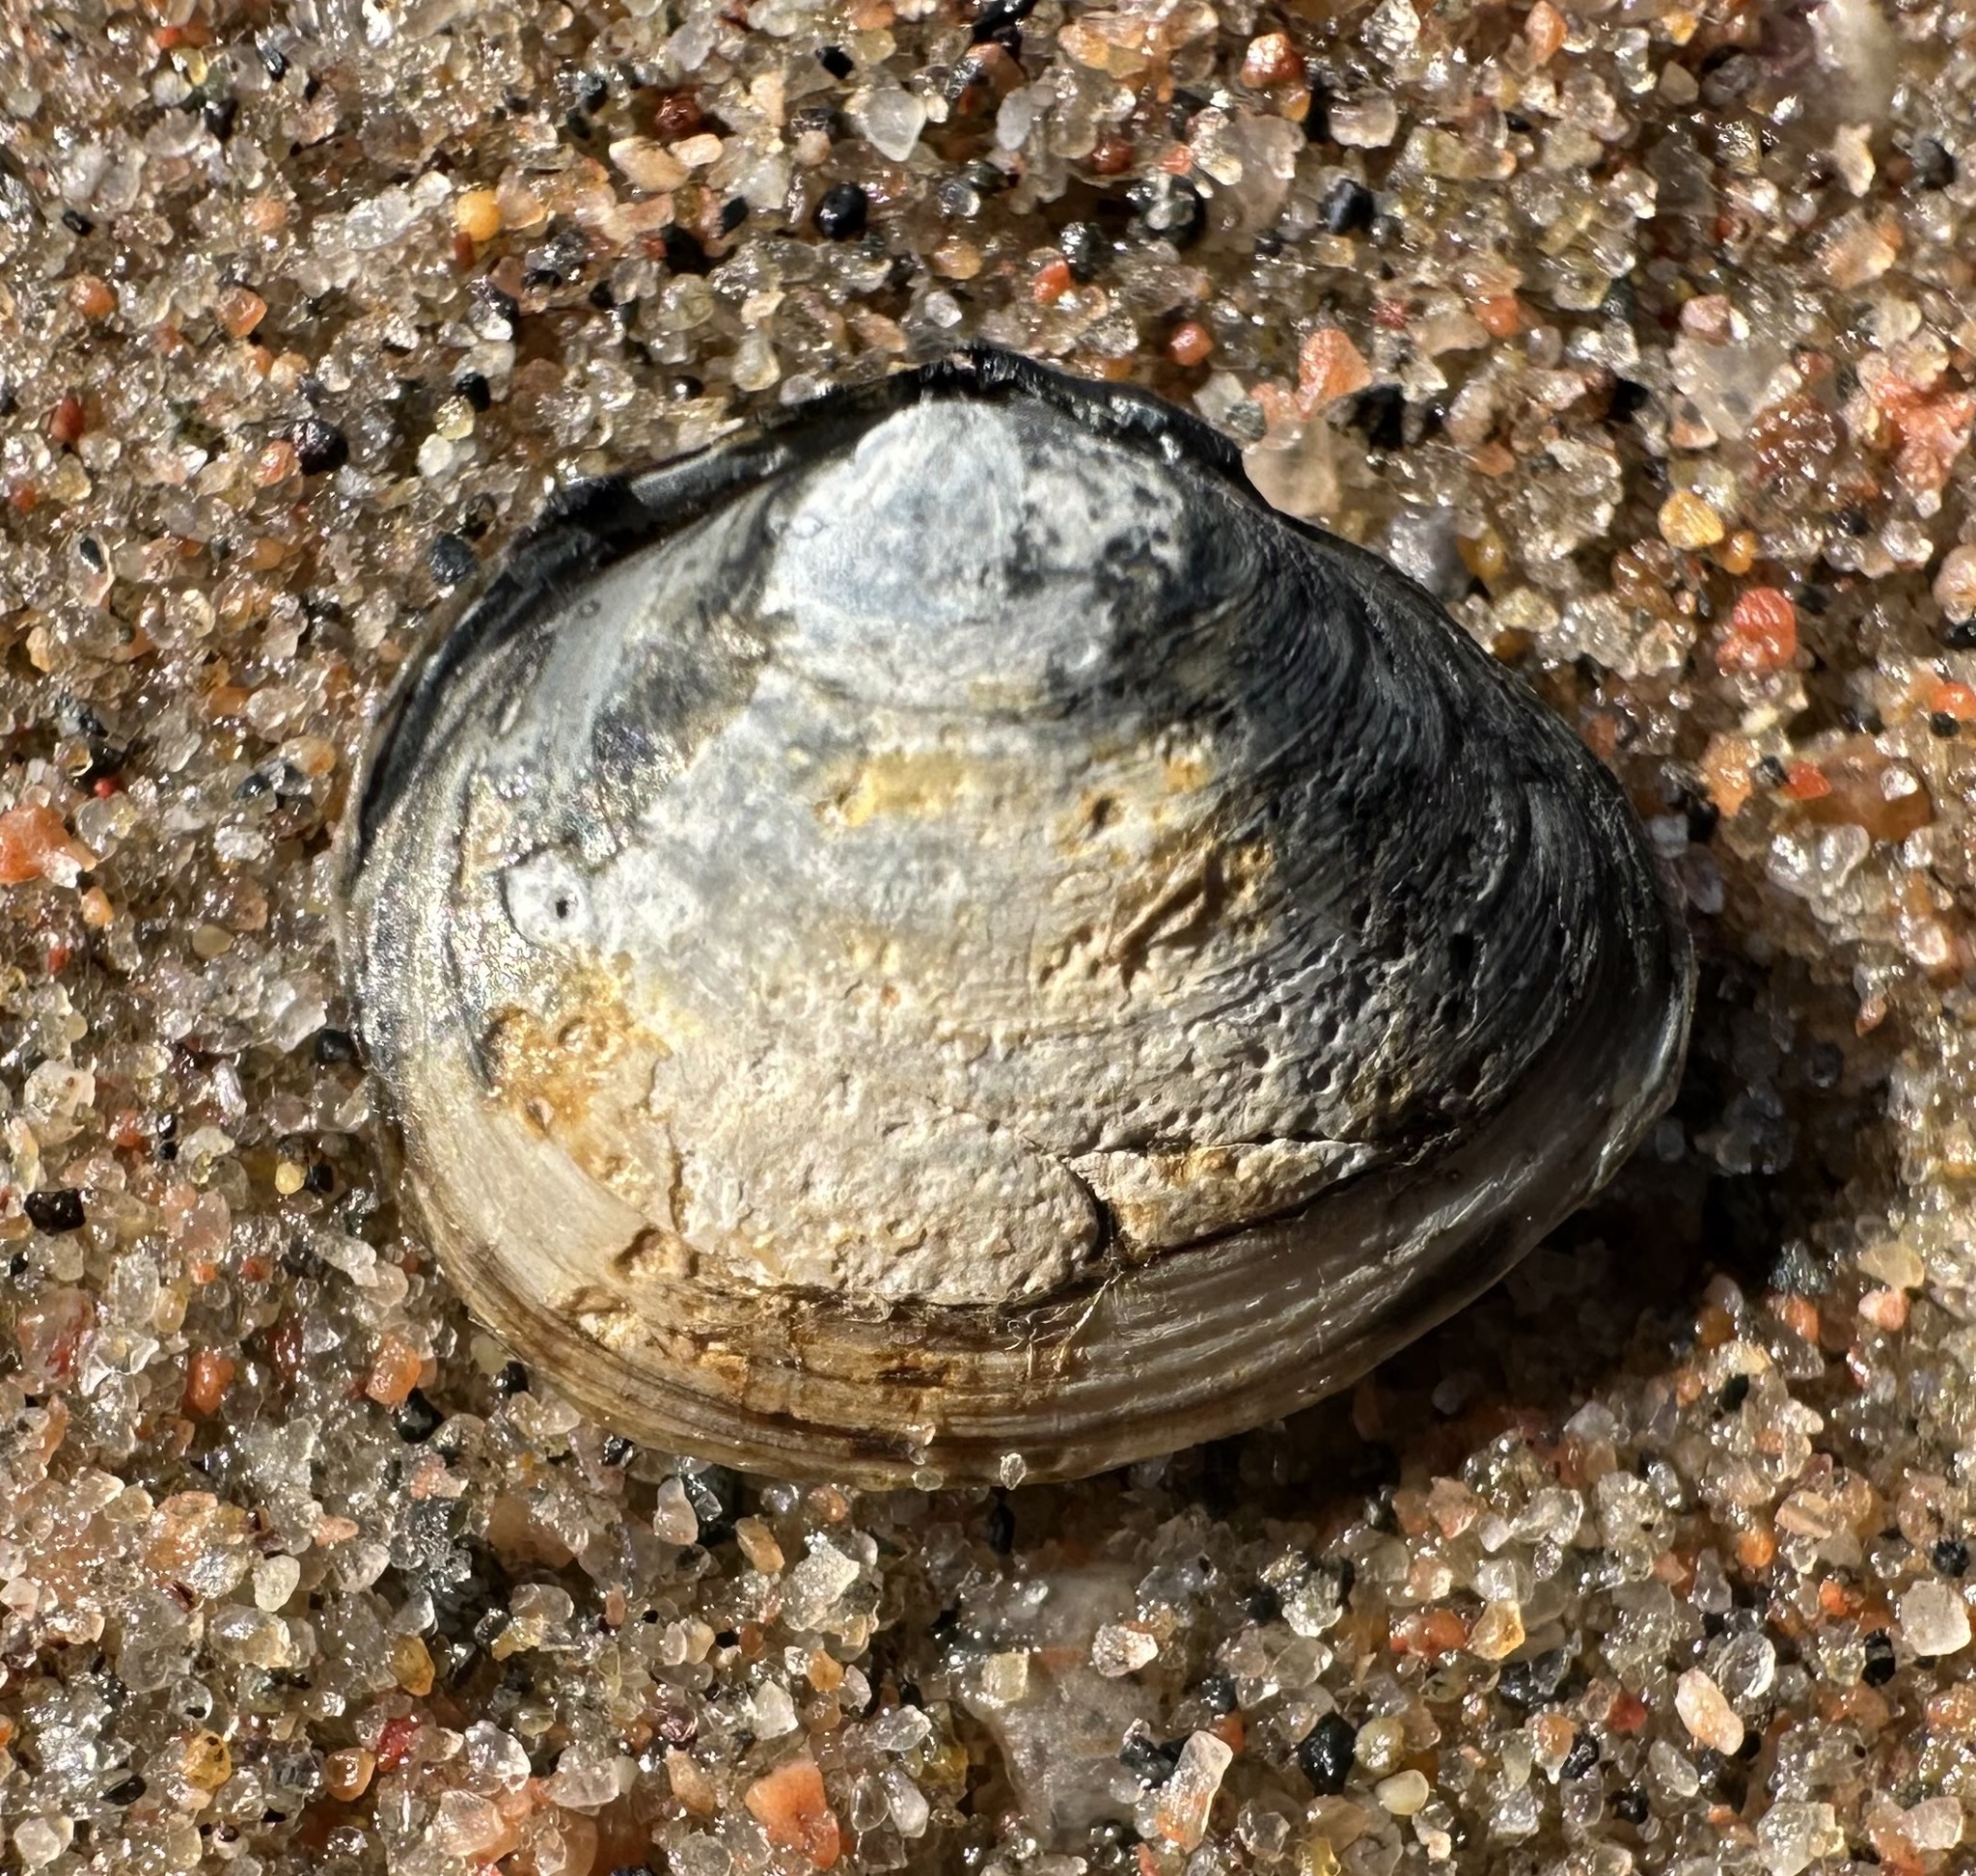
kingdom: Animalia
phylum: Mollusca
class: Bivalvia
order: Cardiida
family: Tellinidae
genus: Macoma
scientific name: Macoma balthica
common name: Baltic tellin
